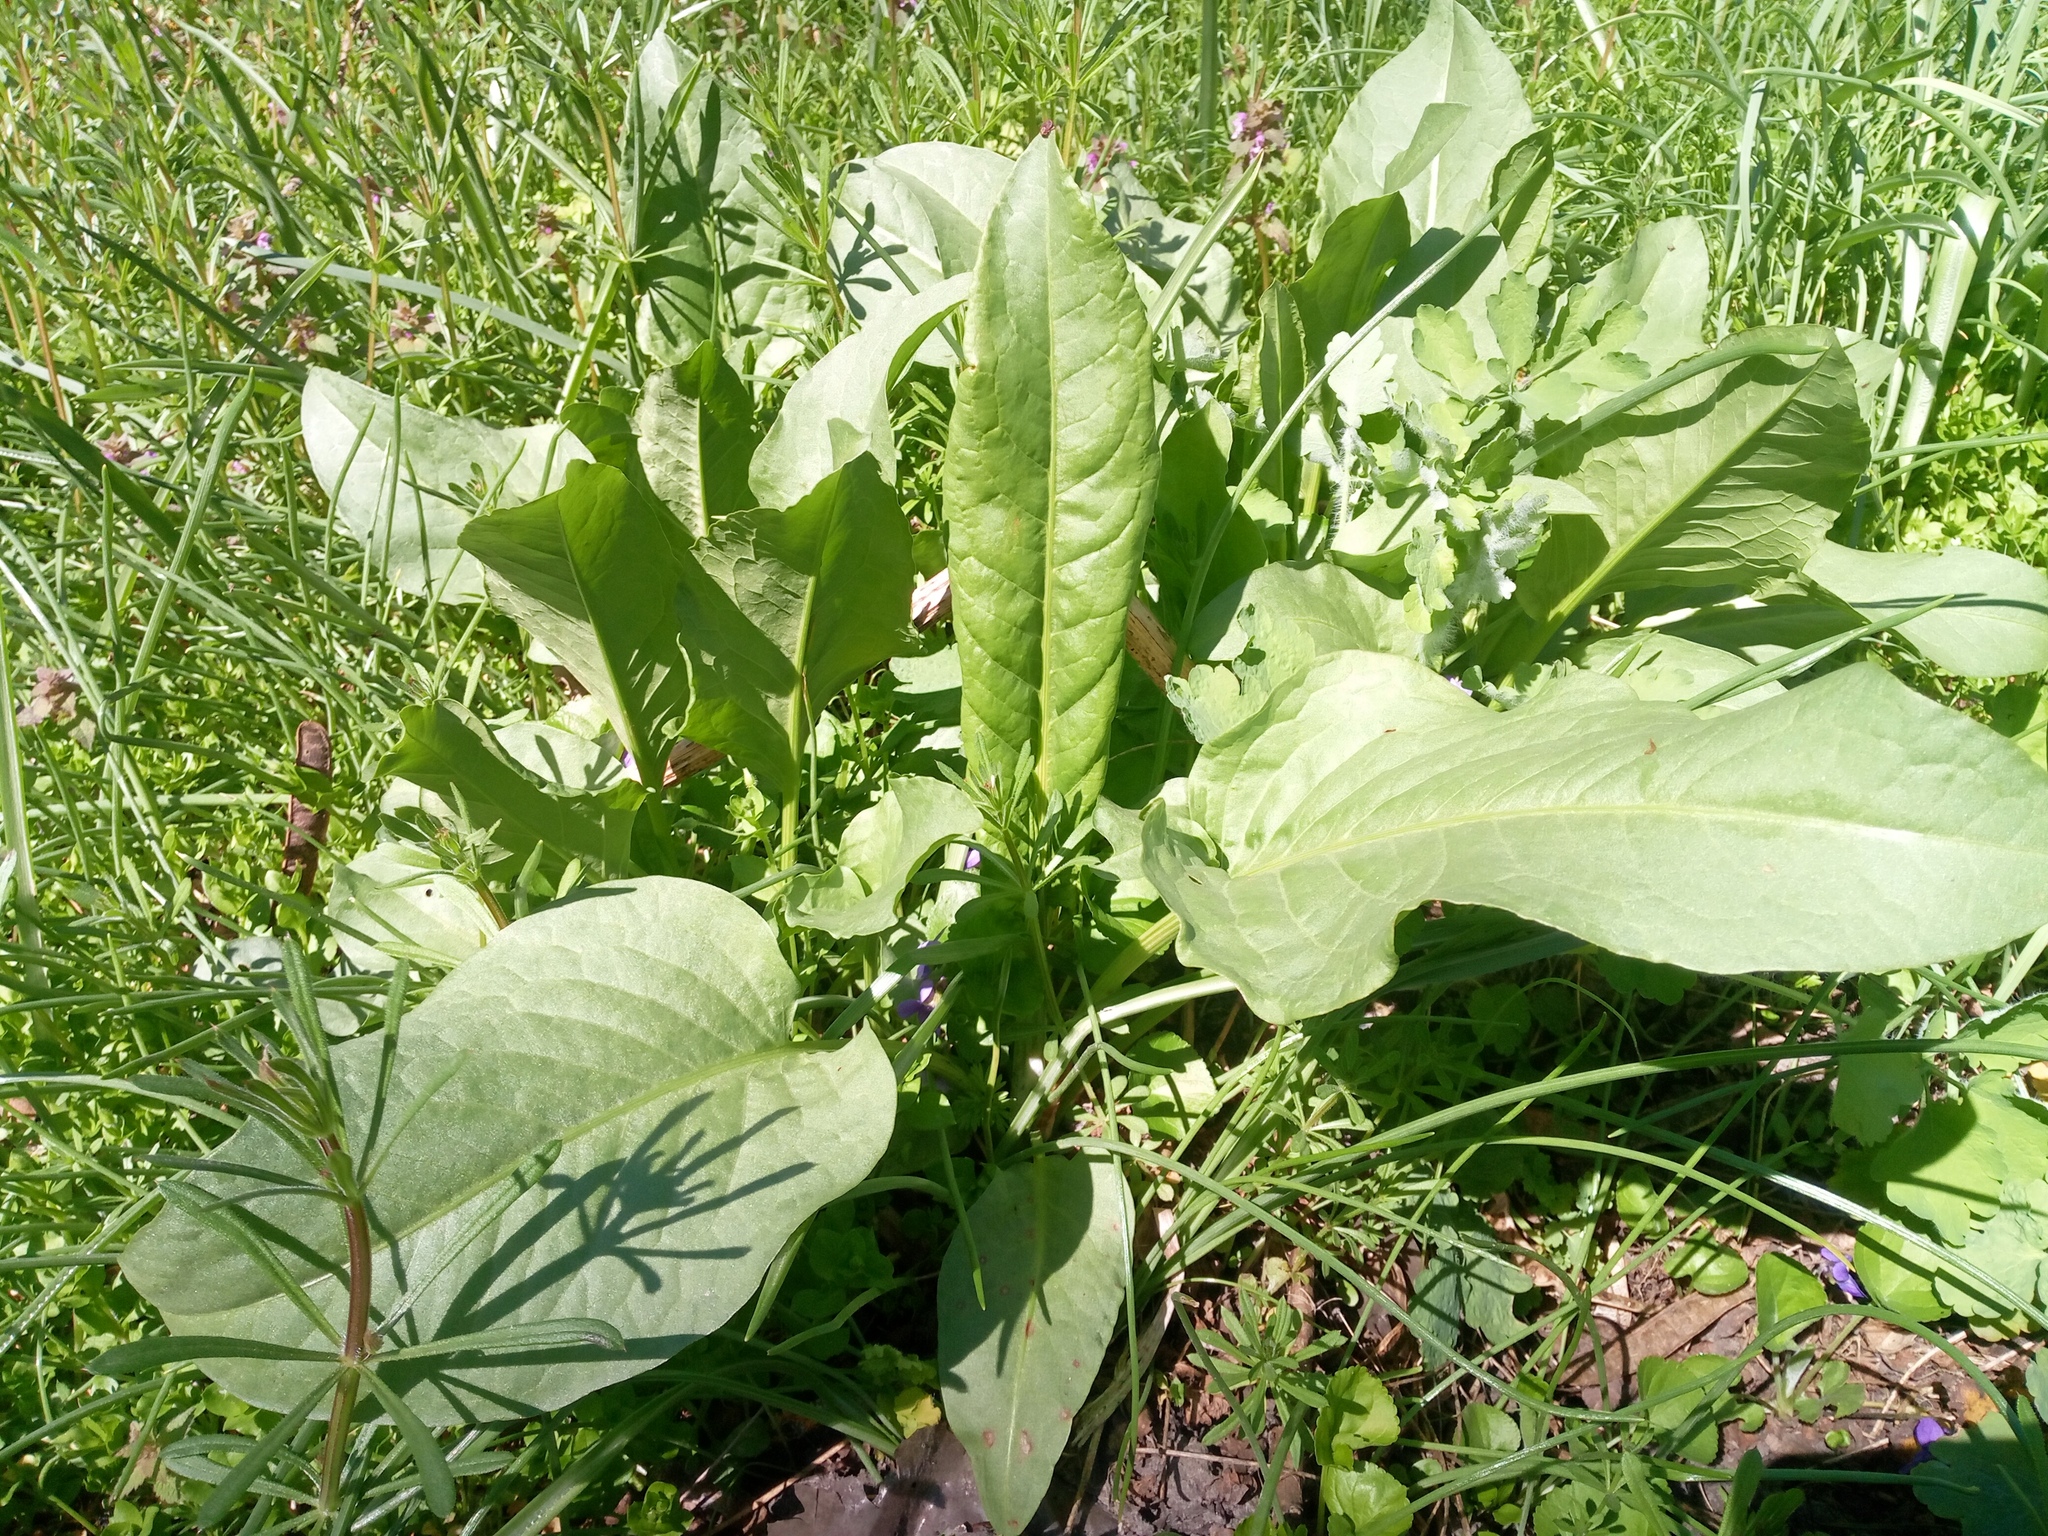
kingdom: Plantae
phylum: Tracheophyta
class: Magnoliopsida
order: Caryophyllales
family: Polygonaceae
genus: Rumex
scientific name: Rumex confertus
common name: Russian dock
